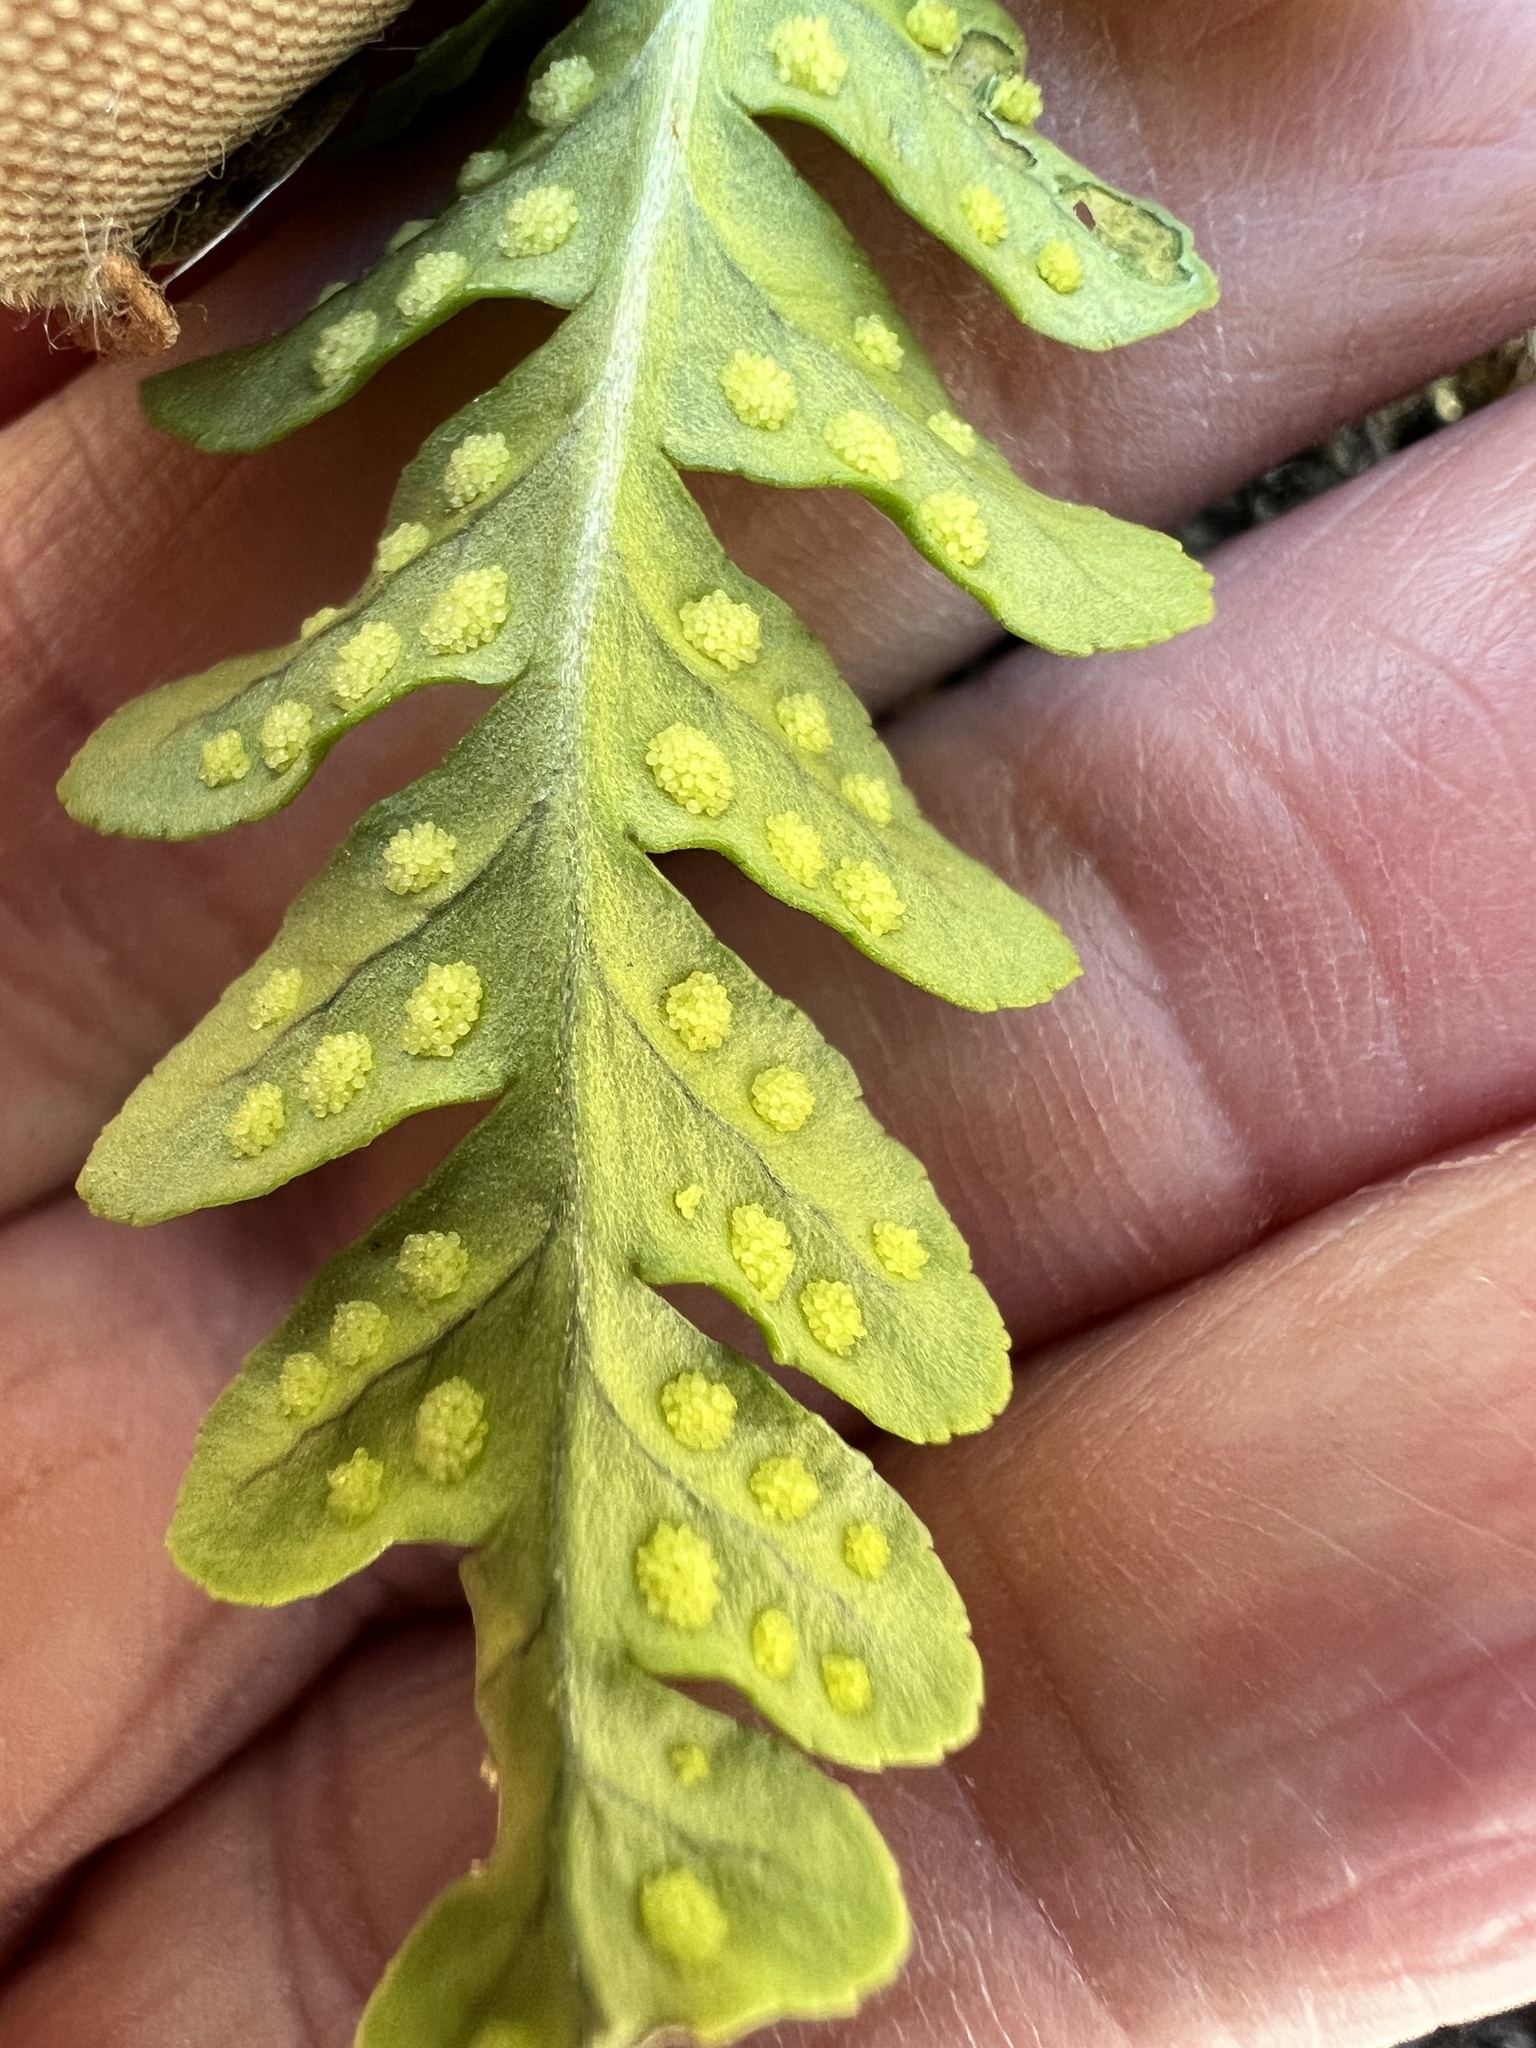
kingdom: Plantae
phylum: Tracheophyta
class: Polypodiopsida
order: Polypodiales
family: Polypodiaceae
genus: Polypodium
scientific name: Polypodium hesperium
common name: Western polypody
